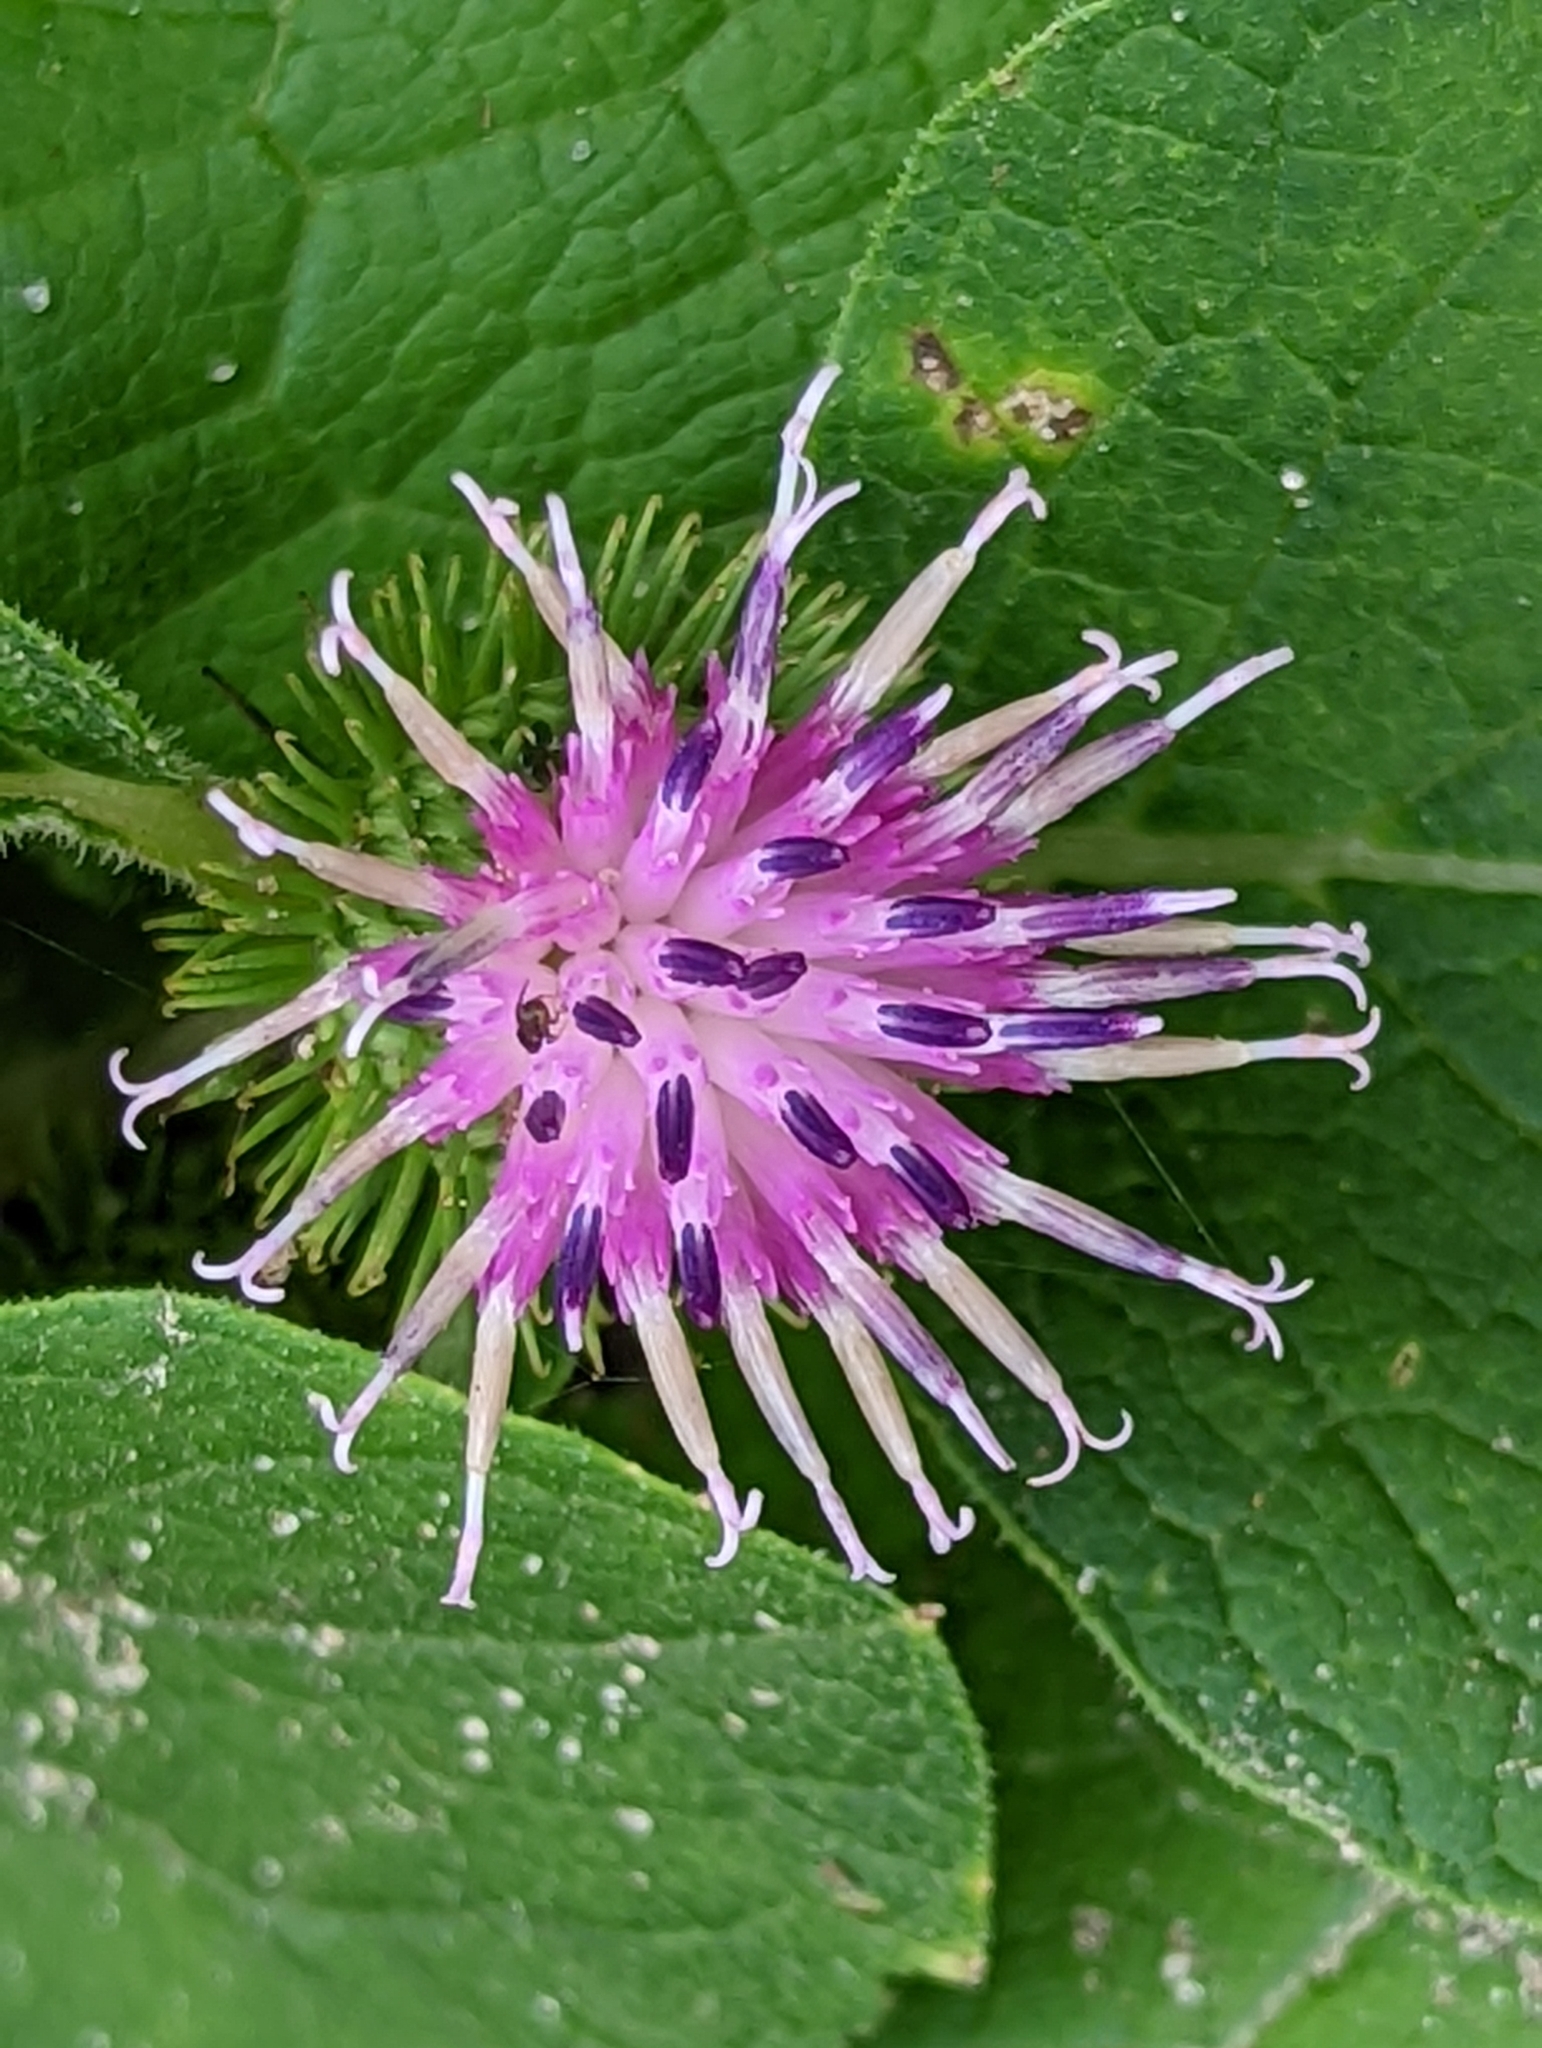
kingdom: Plantae
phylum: Tracheophyta
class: Magnoliopsida
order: Asterales
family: Asteraceae
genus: Arctium
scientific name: Arctium minus
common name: Lesser burdock
